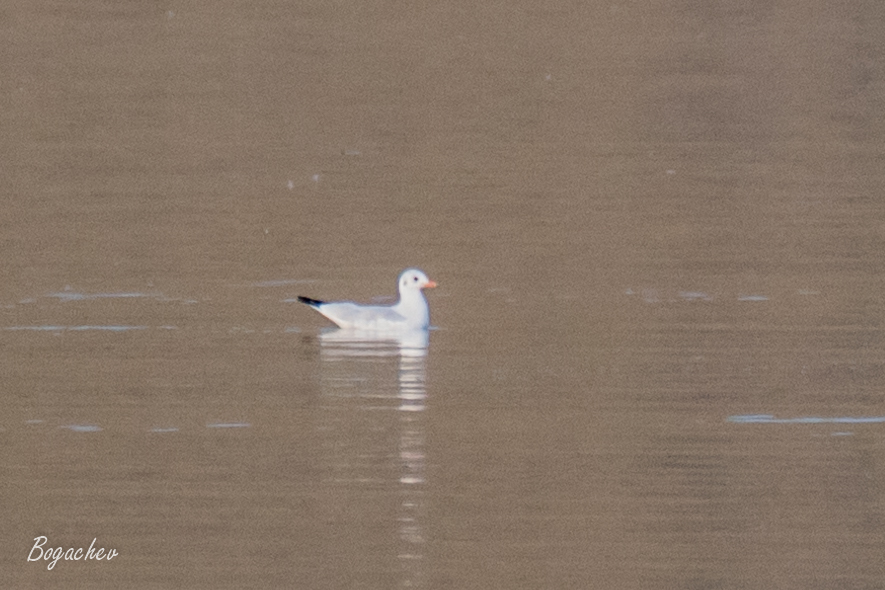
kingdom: Animalia
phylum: Chordata
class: Aves
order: Charadriiformes
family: Laridae
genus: Chroicocephalus
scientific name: Chroicocephalus ridibundus
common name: Black-headed gull
